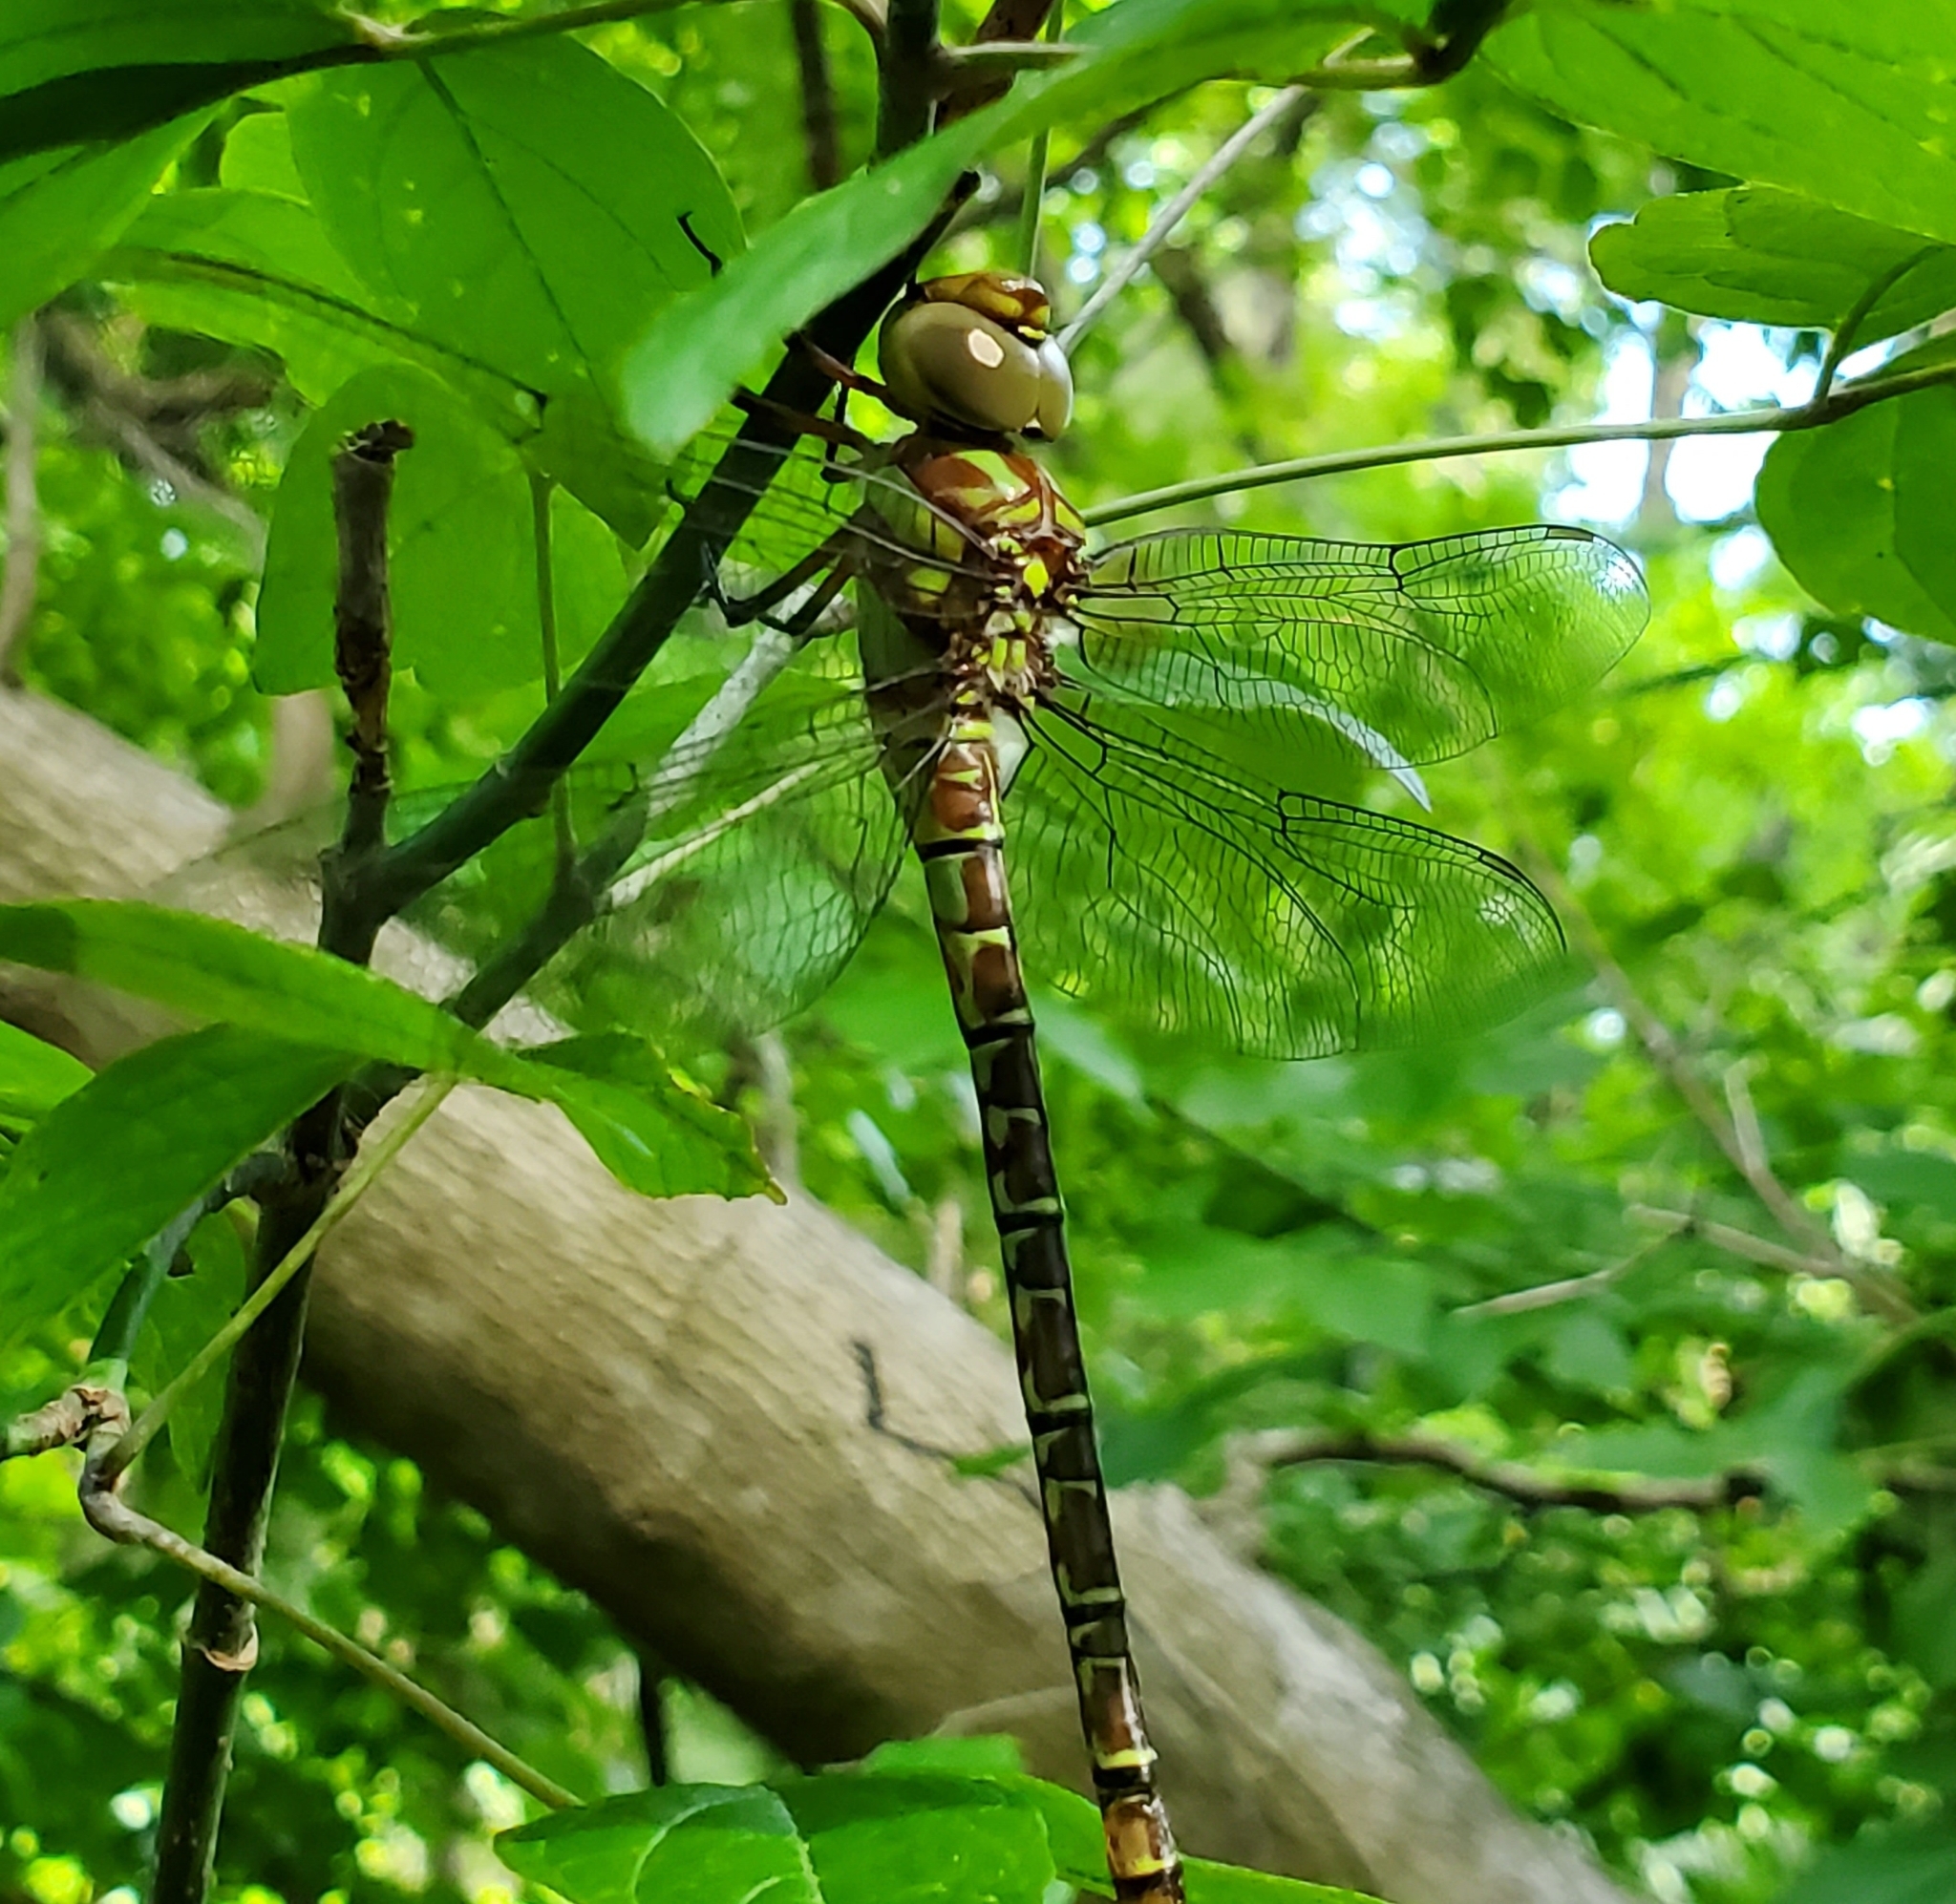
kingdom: Animalia
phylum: Arthropoda
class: Insecta
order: Odonata
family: Aeshnidae
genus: Coryphaeschna
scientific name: Coryphaeschna ingens
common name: Regal darner
